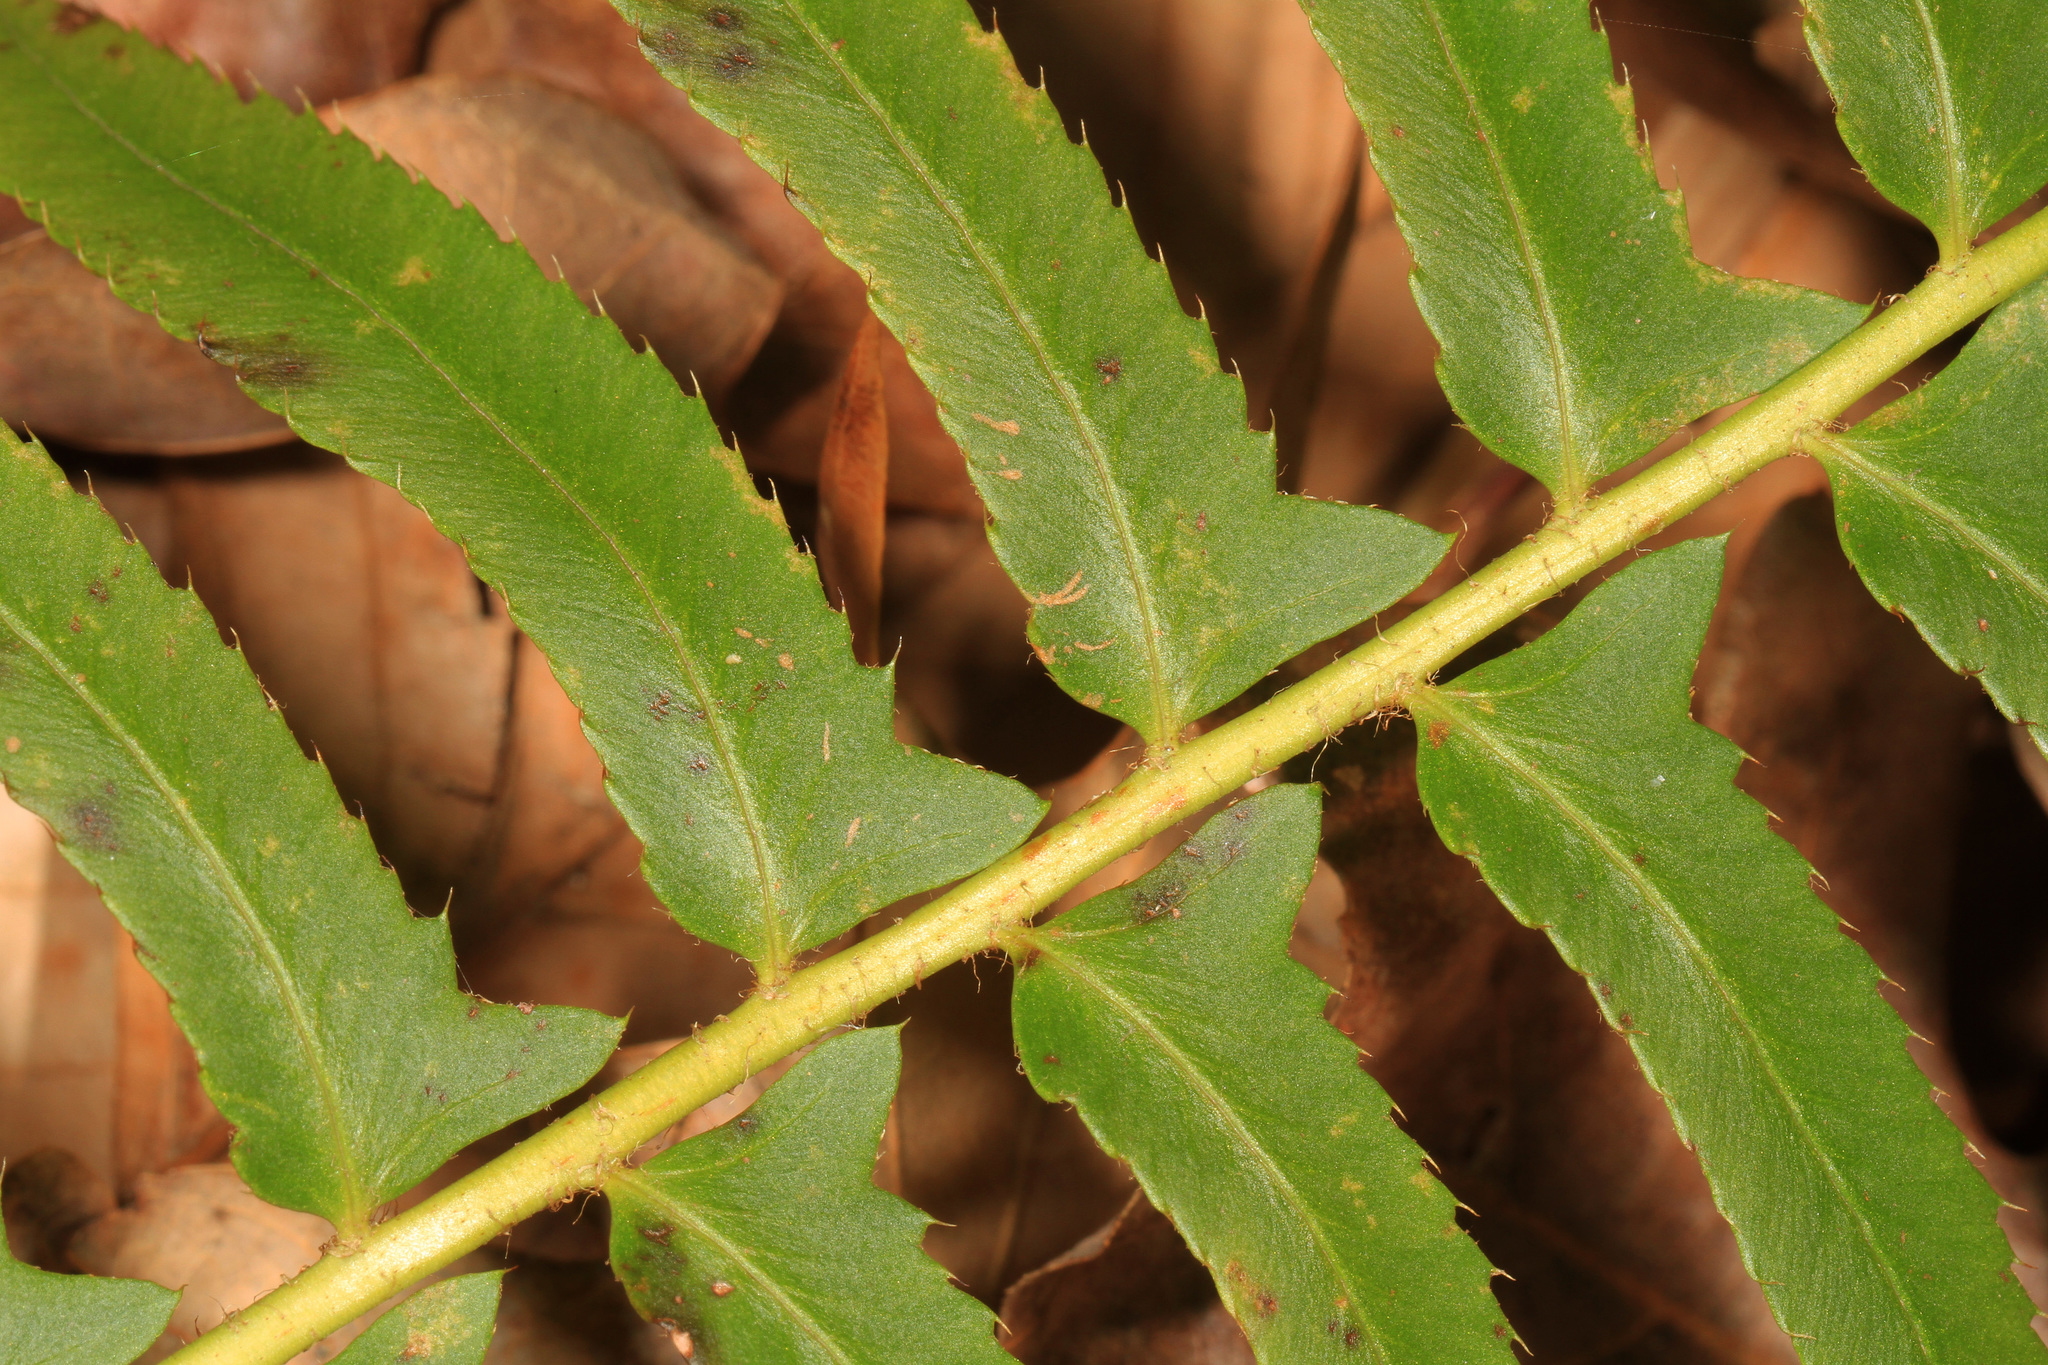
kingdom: Plantae
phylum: Tracheophyta
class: Polypodiopsida
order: Polypodiales
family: Dryopteridaceae
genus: Polystichum
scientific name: Polystichum acrostichoides
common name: Christmas fern
